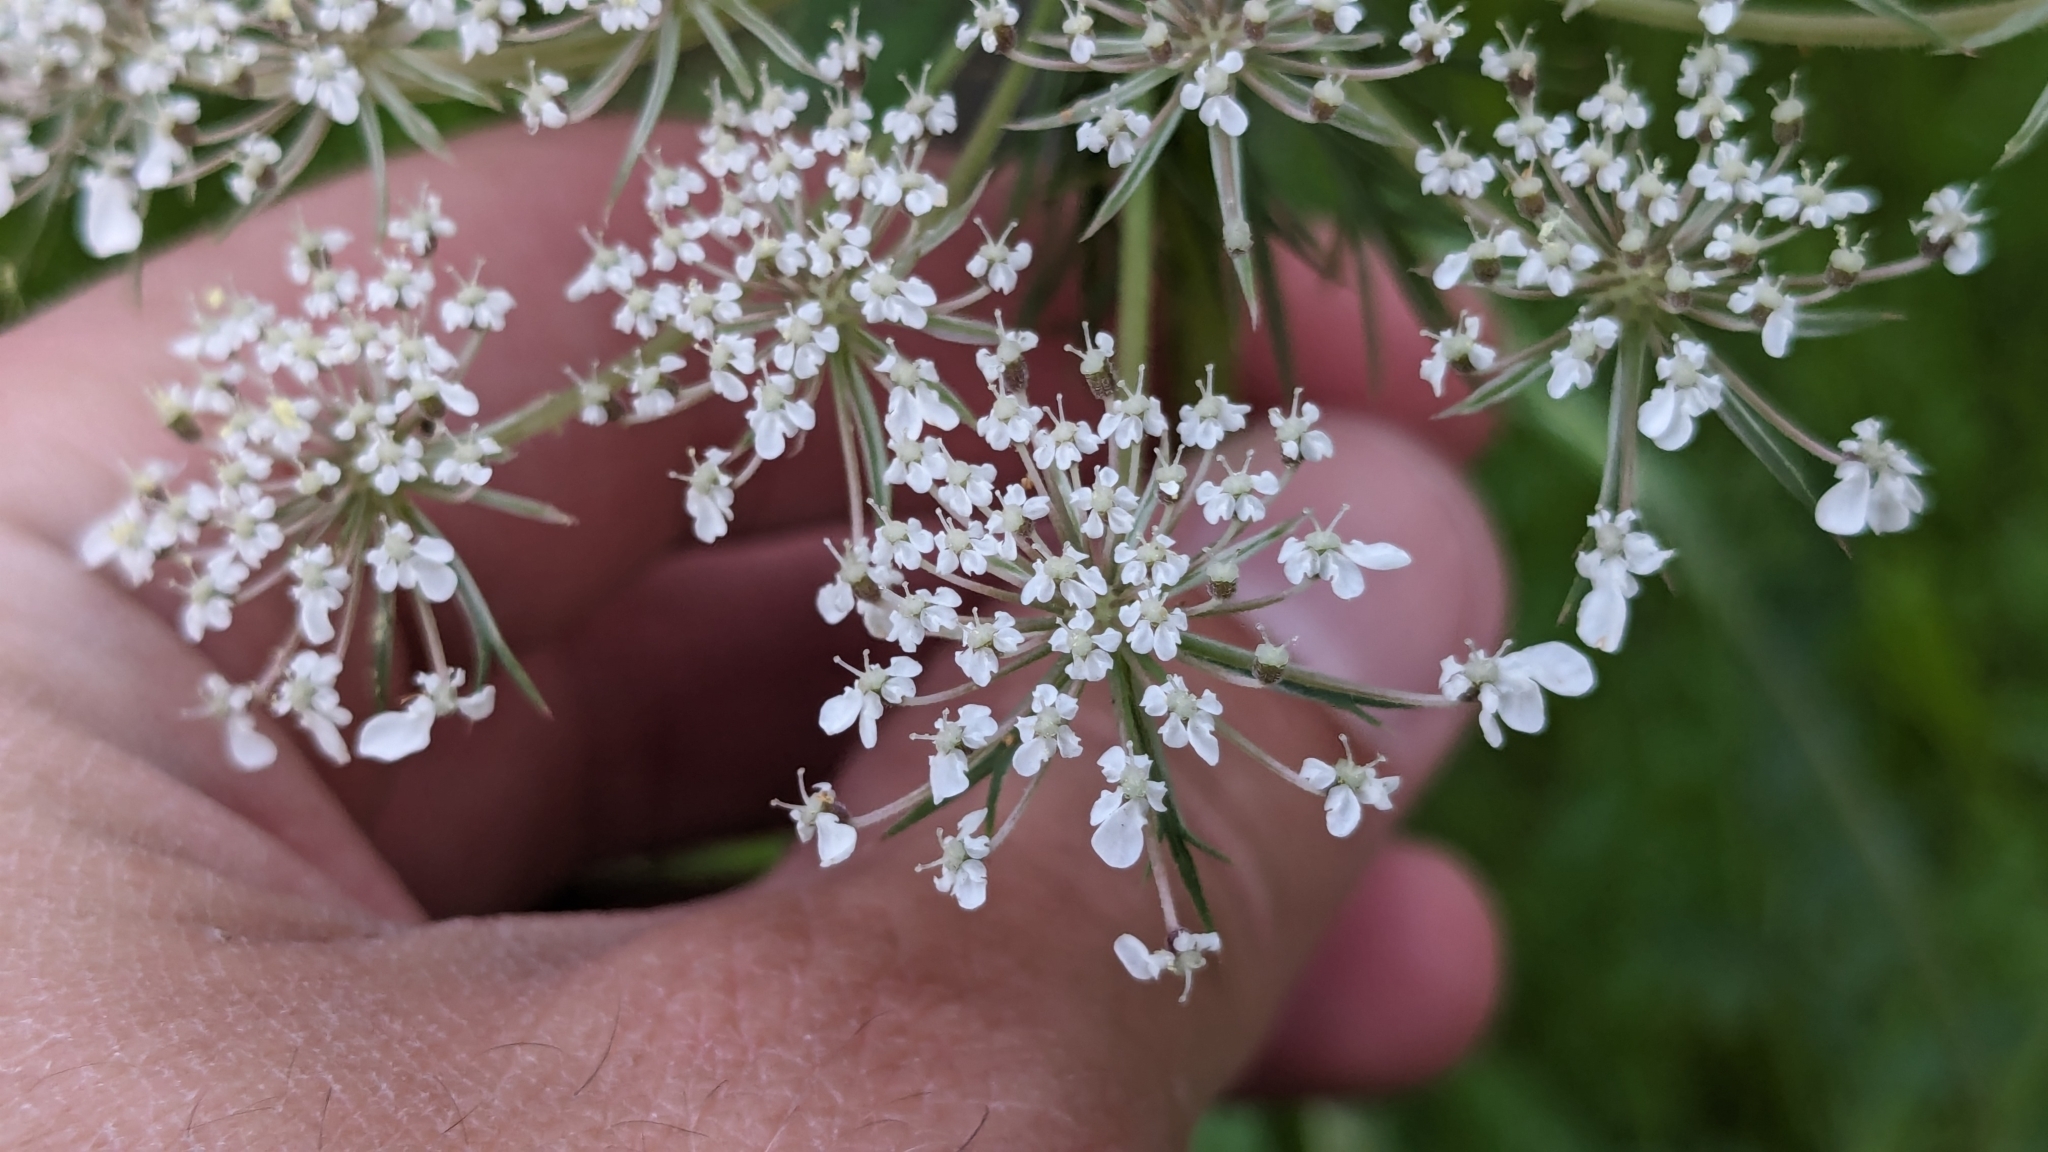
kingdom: Plantae
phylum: Tracheophyta
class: Magnoliopsida
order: Apiales
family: Apiaceae
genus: Daucus
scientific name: Daucus carota
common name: Wild carrot
